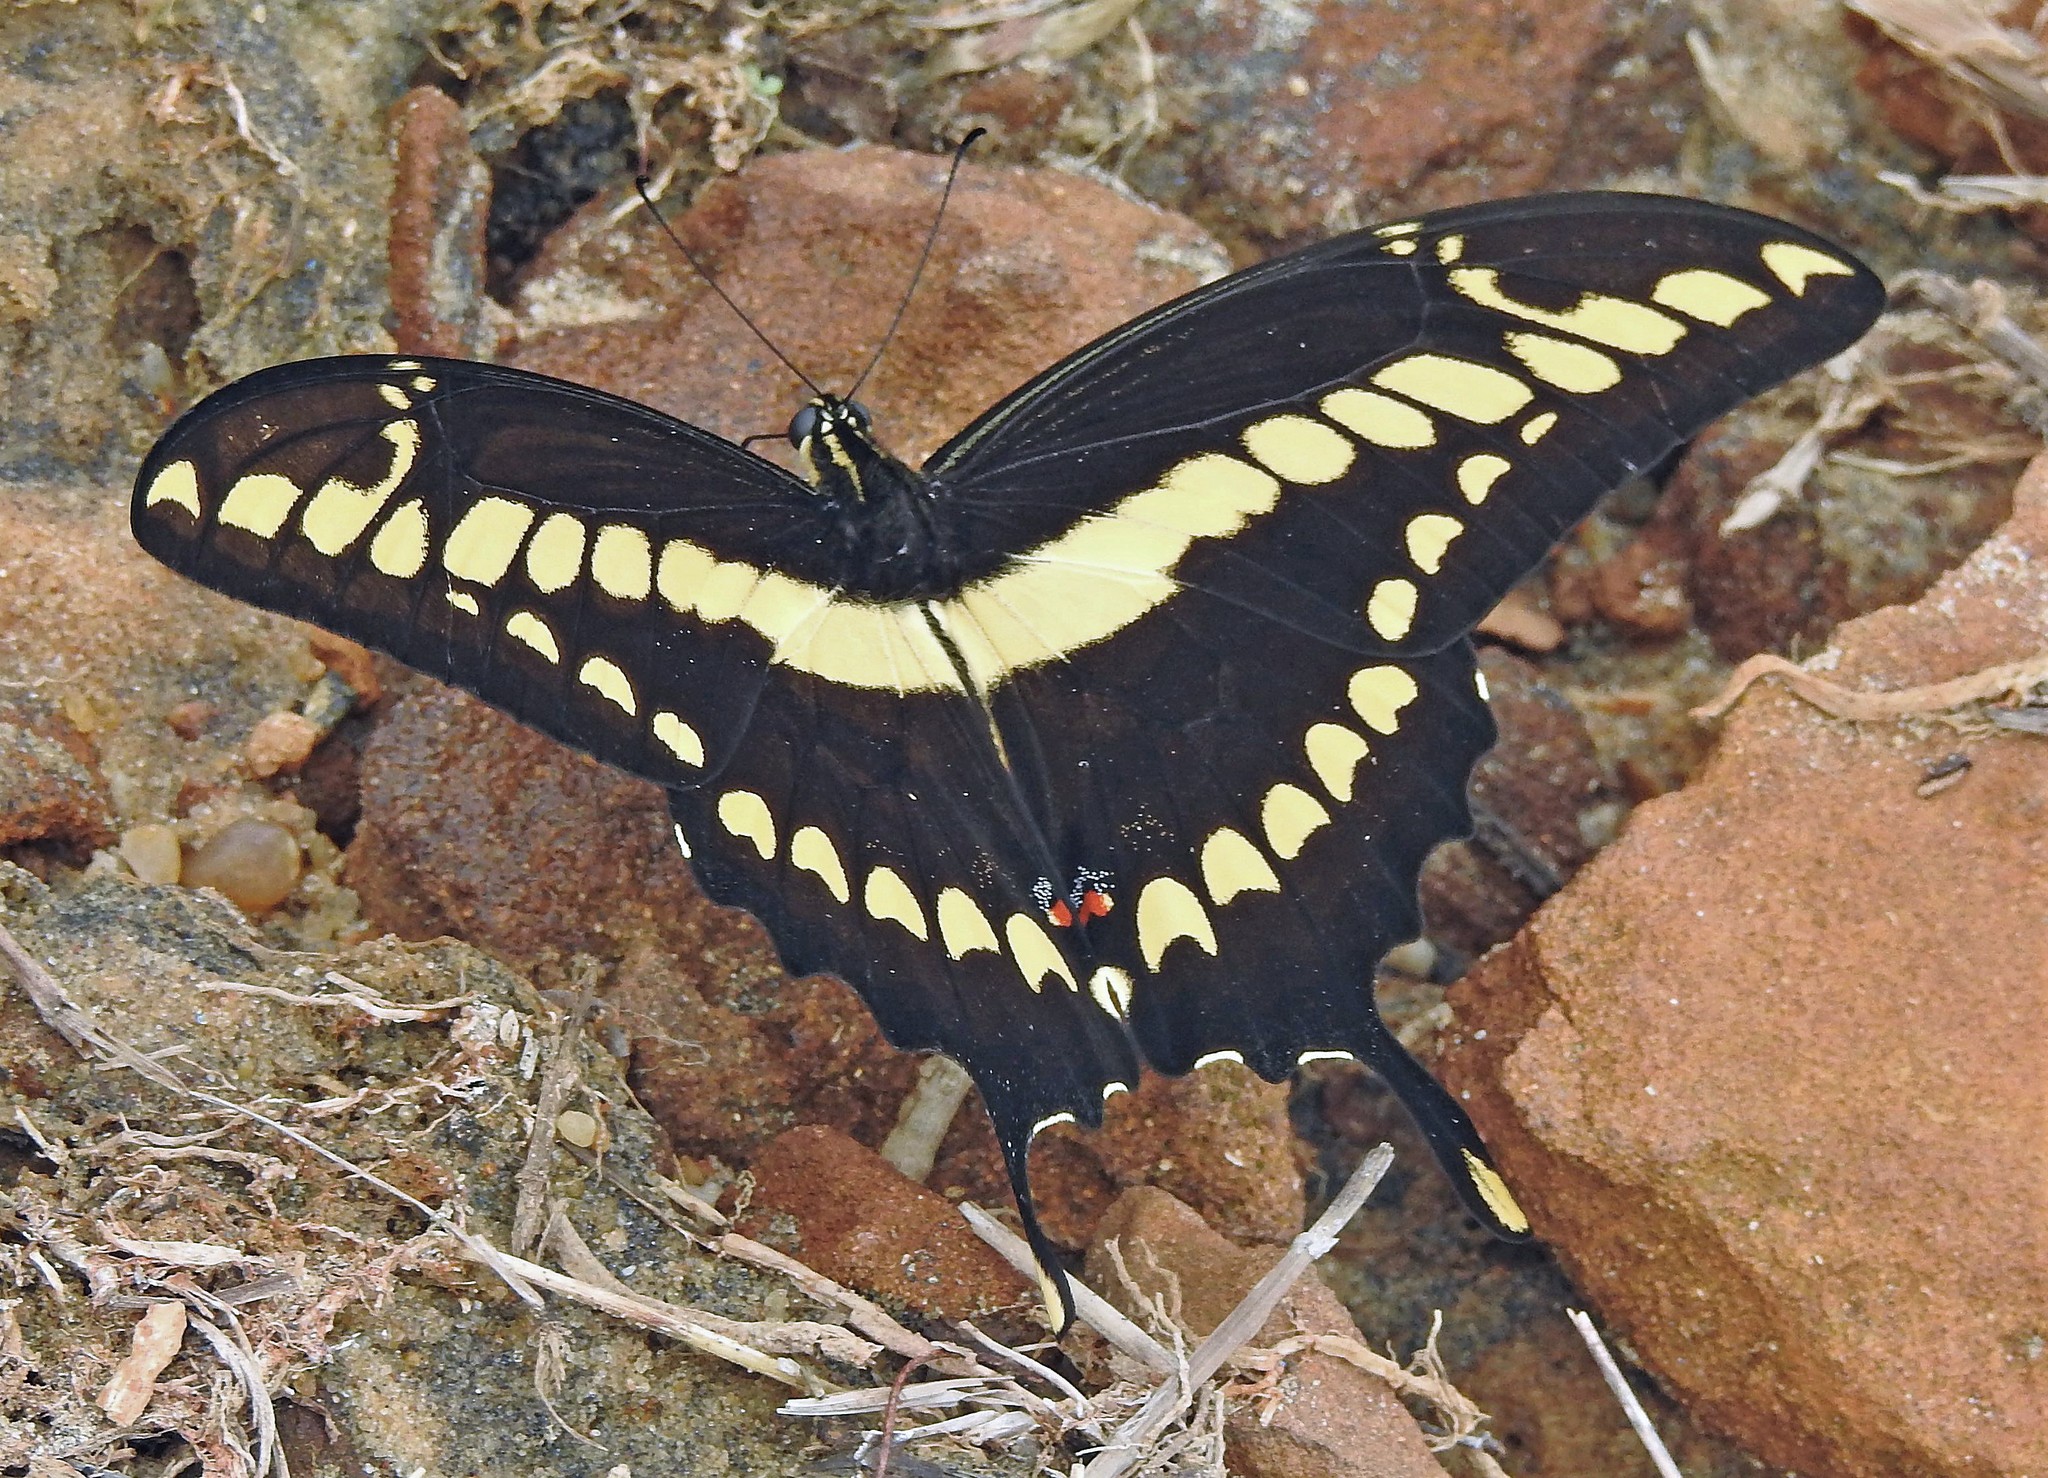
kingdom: Animalia
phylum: Arthropoda
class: Insecta
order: Lepidoptera
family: Papilionidae
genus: Papilio
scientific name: Papilio thoas
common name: King swallowtail
